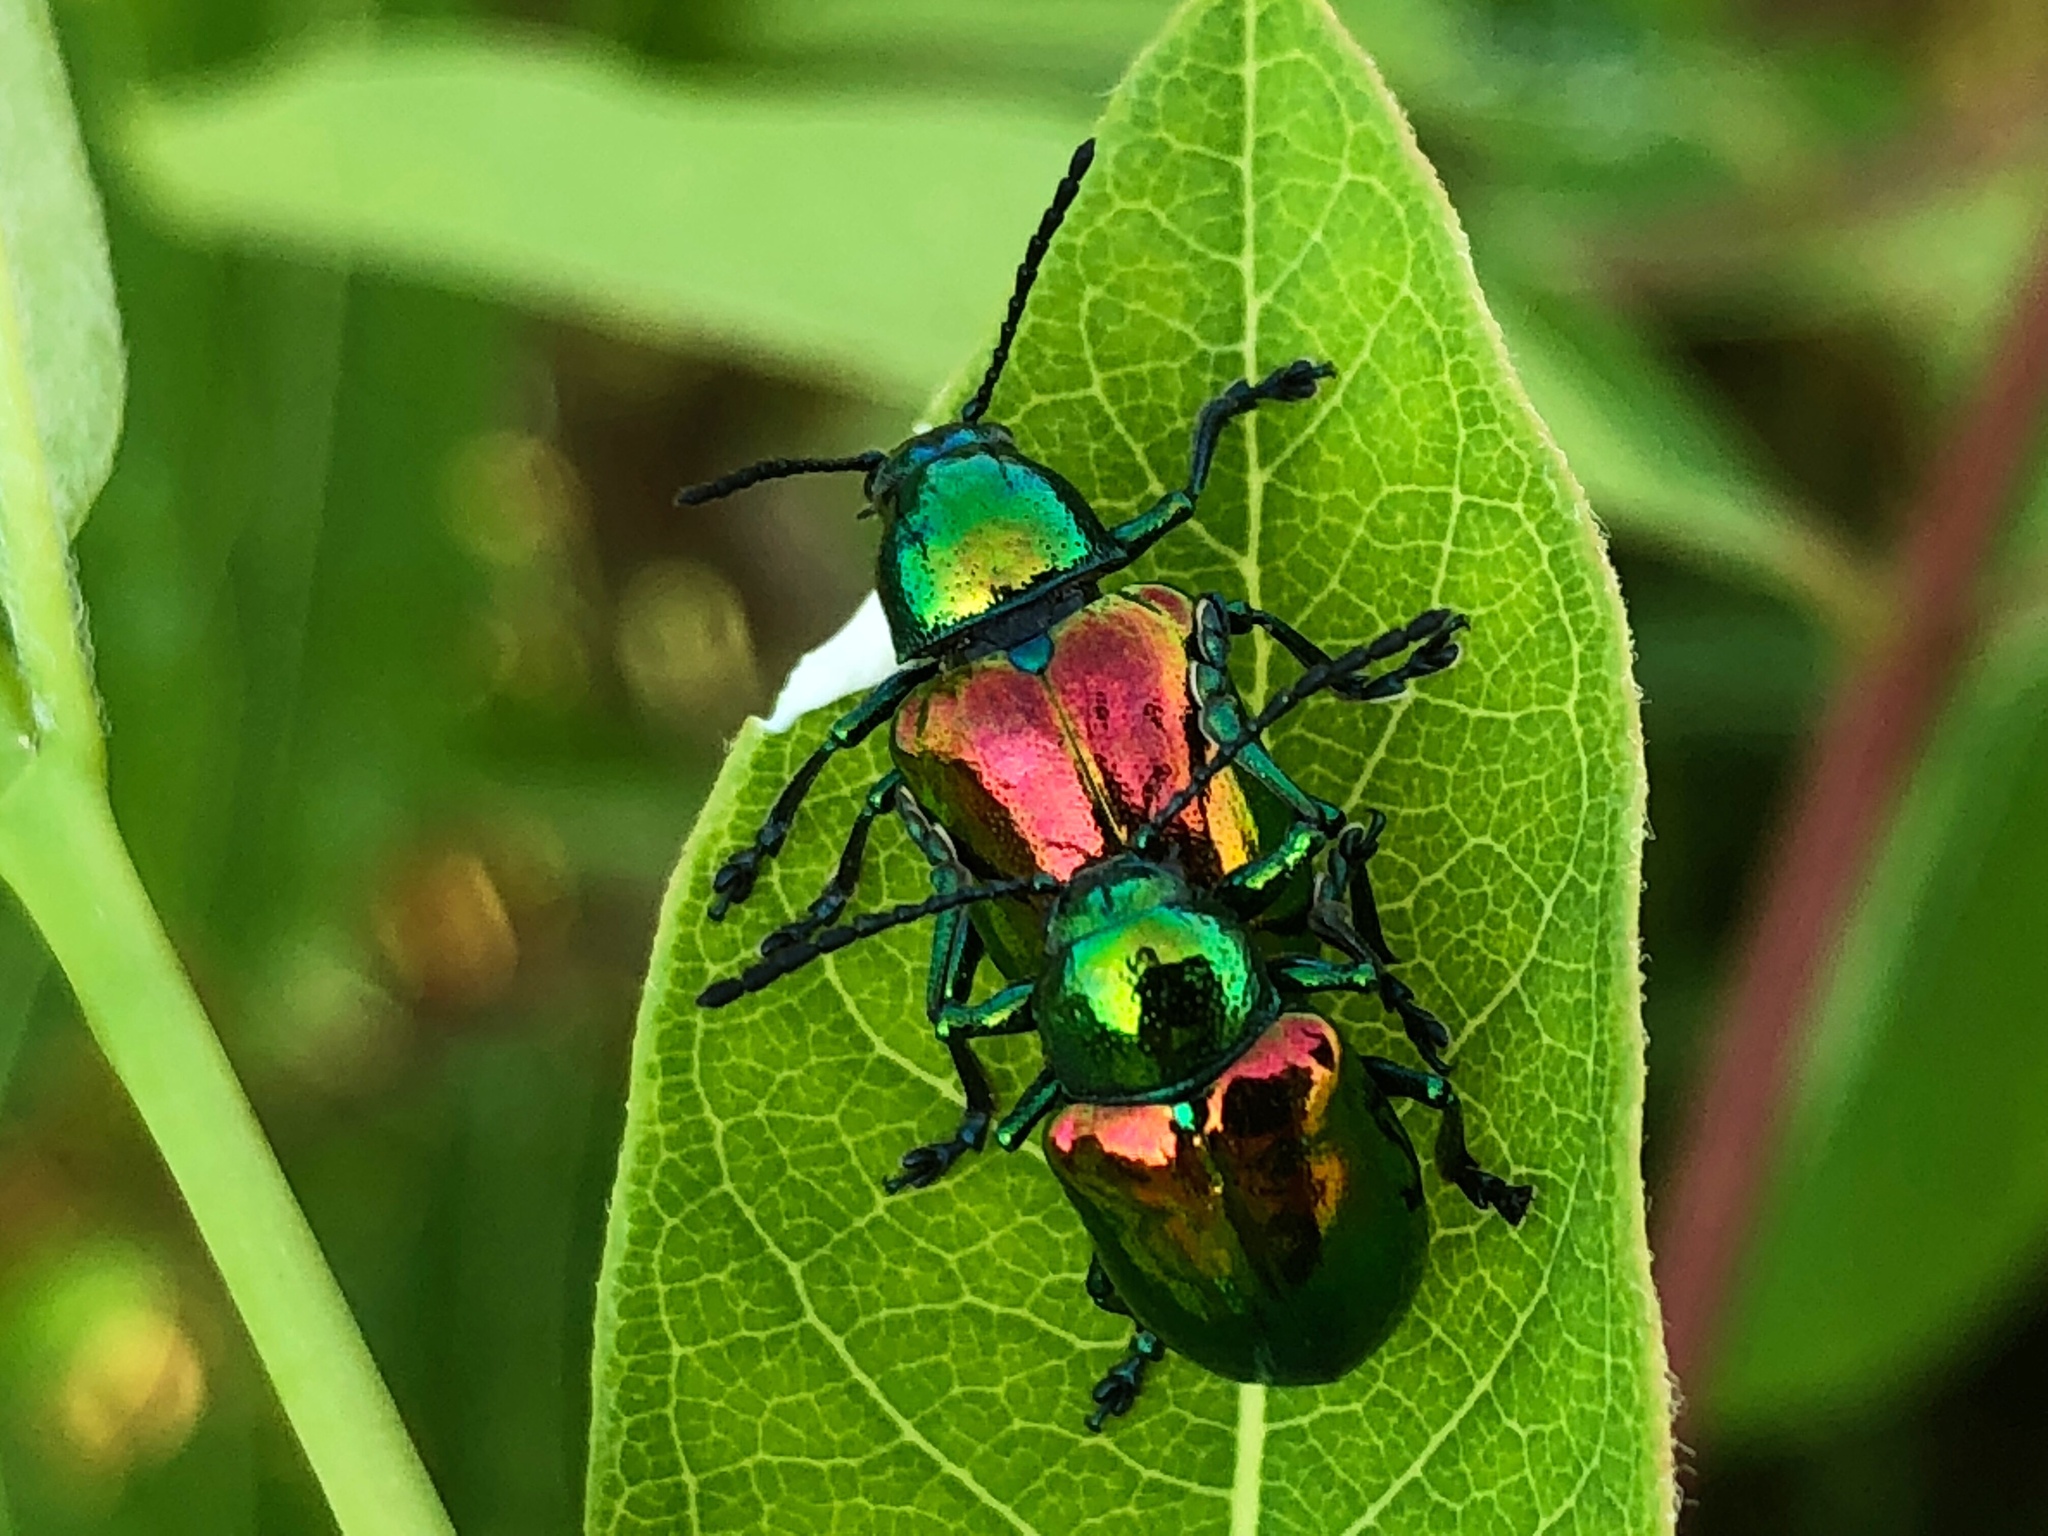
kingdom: Animalia
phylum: Arthropoda
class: Insecta
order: Coleoptera
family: Chrysomelidae
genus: Chrysochus
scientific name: Chrysochus auratus
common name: Dogbane leaf beetle
